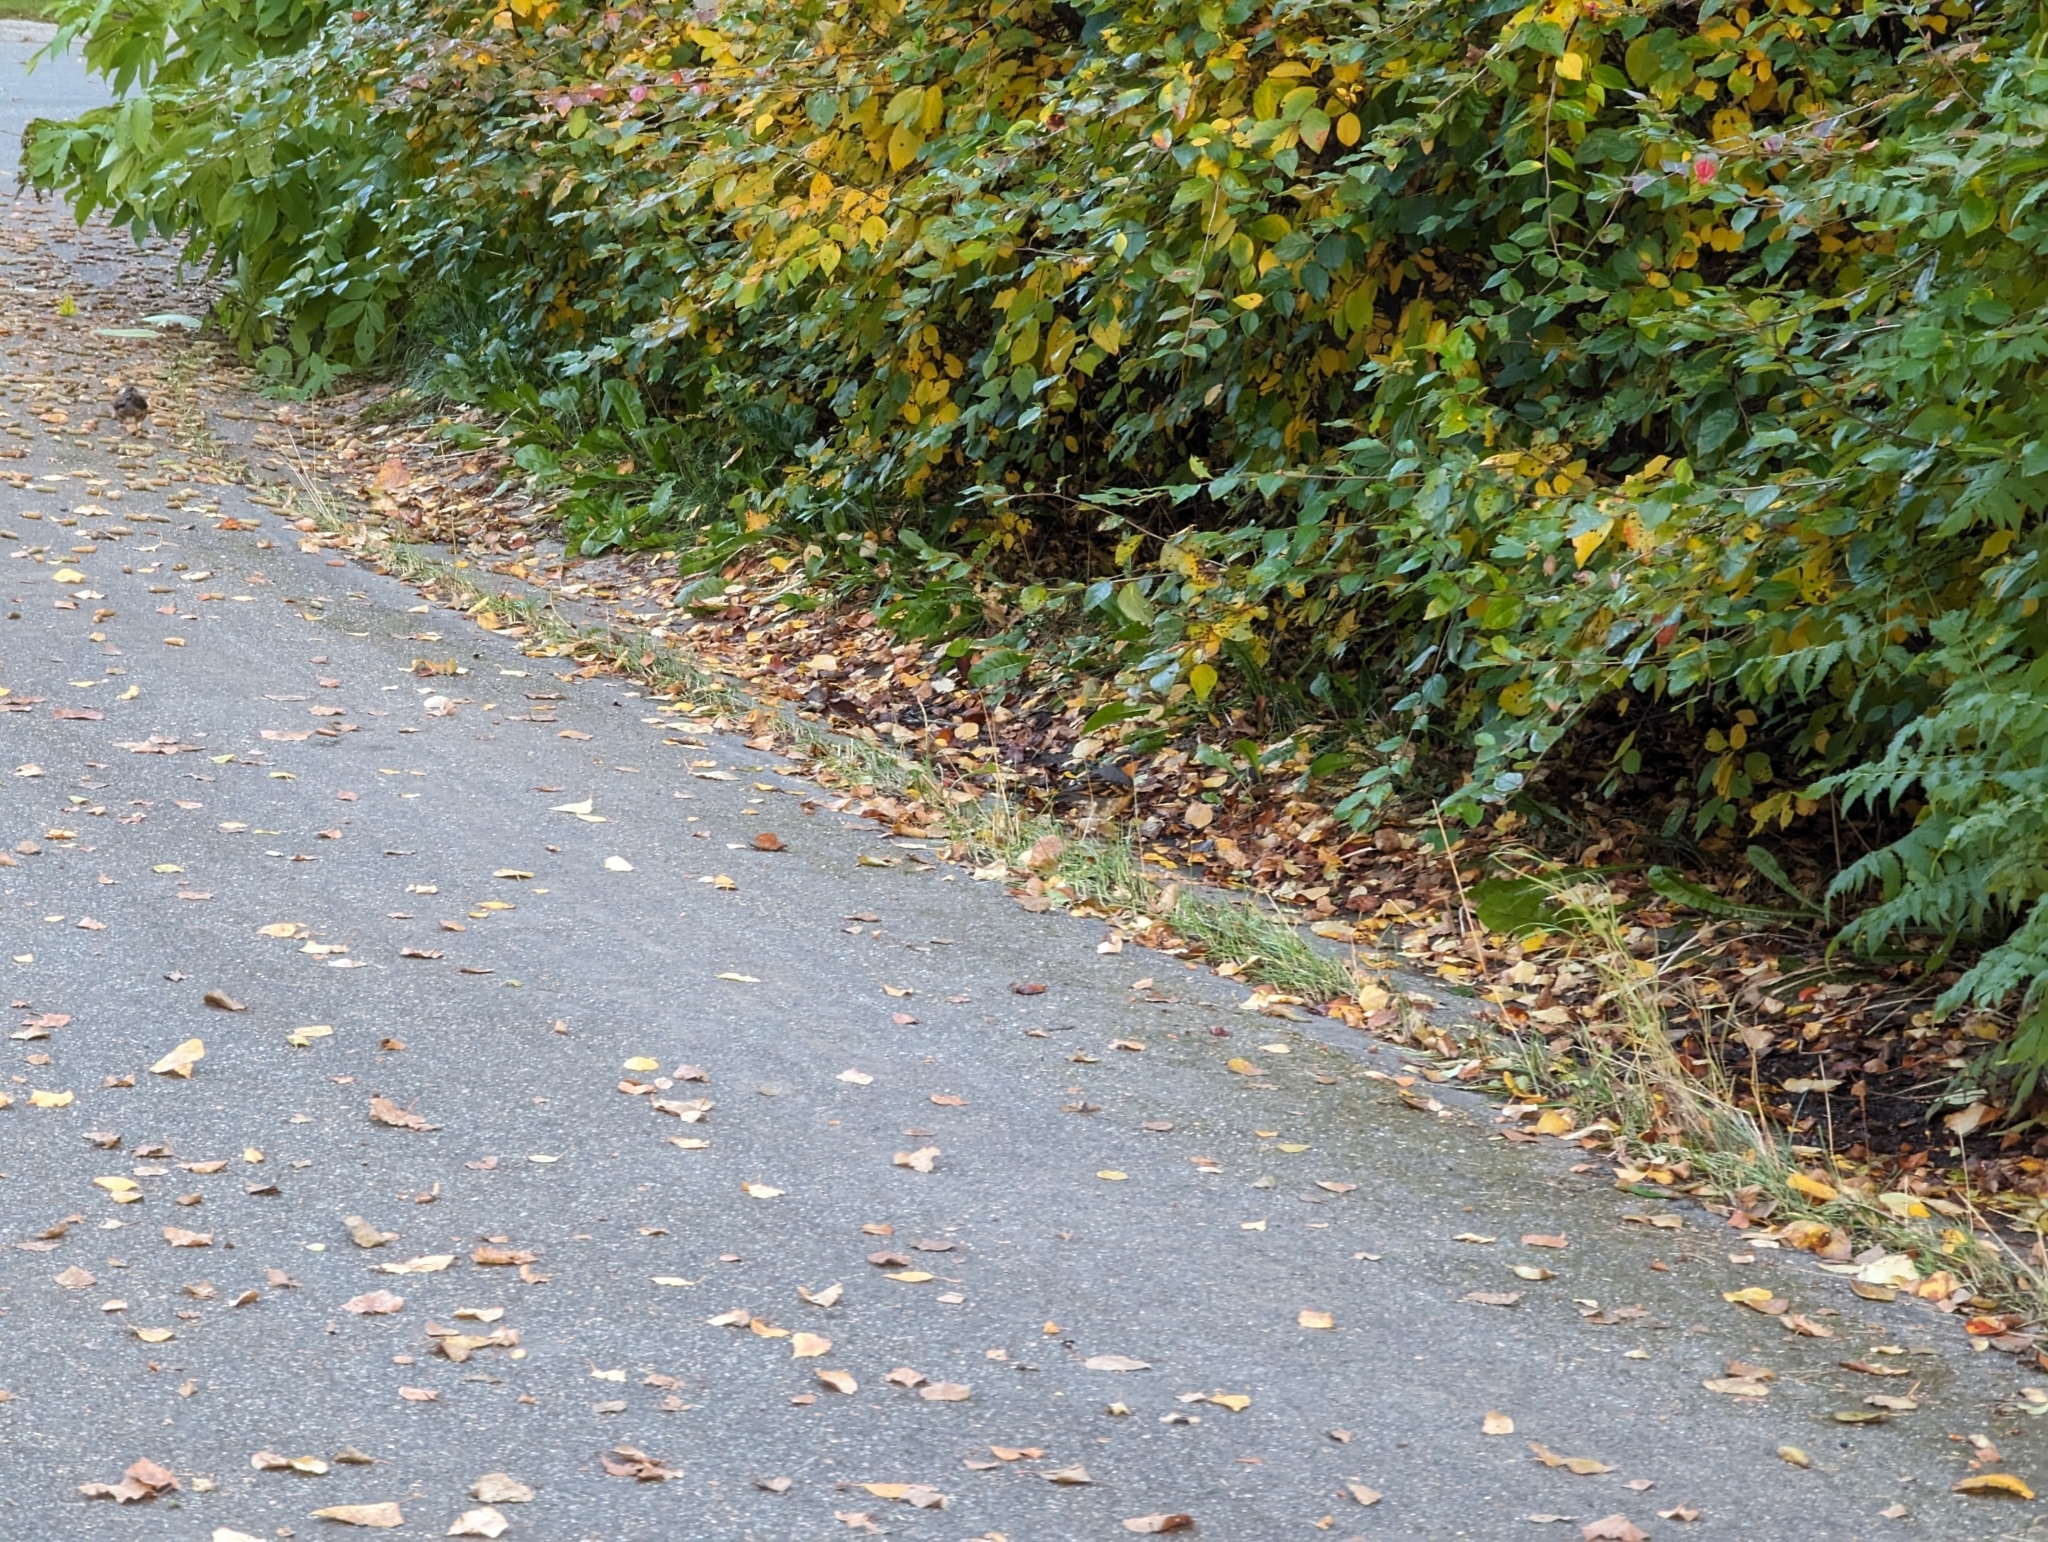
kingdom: Animalia
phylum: Chordata
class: Aves
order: Passeriformes
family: Turdidae
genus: Ixoreus
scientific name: Ixoreus naevius
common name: Varied thrush
